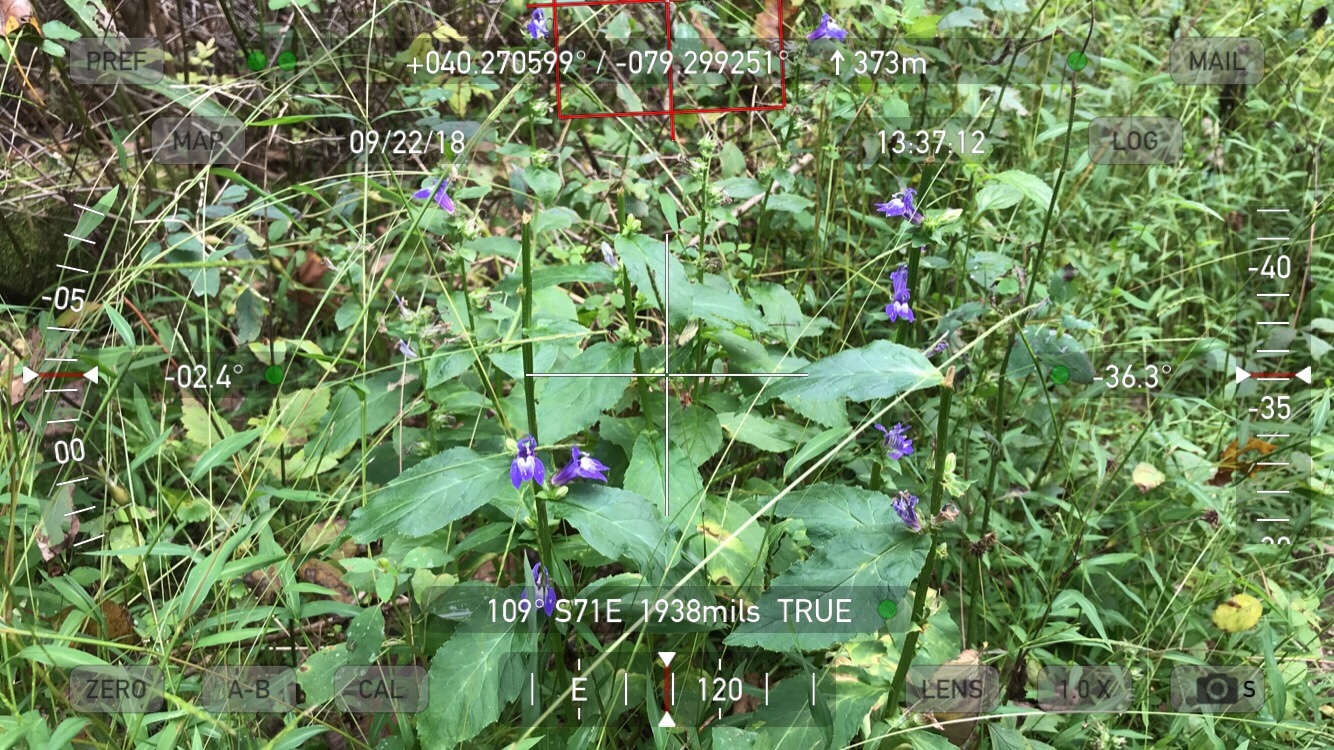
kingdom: Plantae
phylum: Tracheophyta
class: Magnoliopsida
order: Asterales
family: Campanulaceae
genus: Lobelia
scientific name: Lobelia siphilitica
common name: Great lobelia
